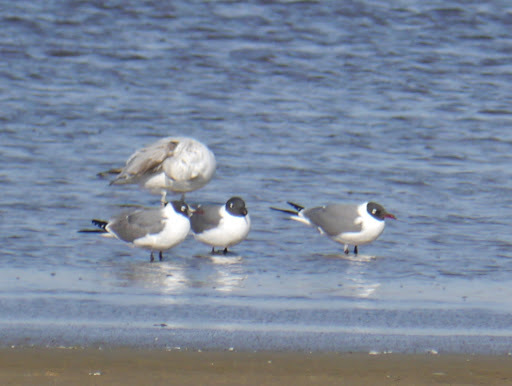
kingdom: Animalia
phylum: Chordata
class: Aves
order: Charadriiformes
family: Laridae
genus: Leucophaeus
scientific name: Leucophaeus atricilla
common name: Laughing gull
